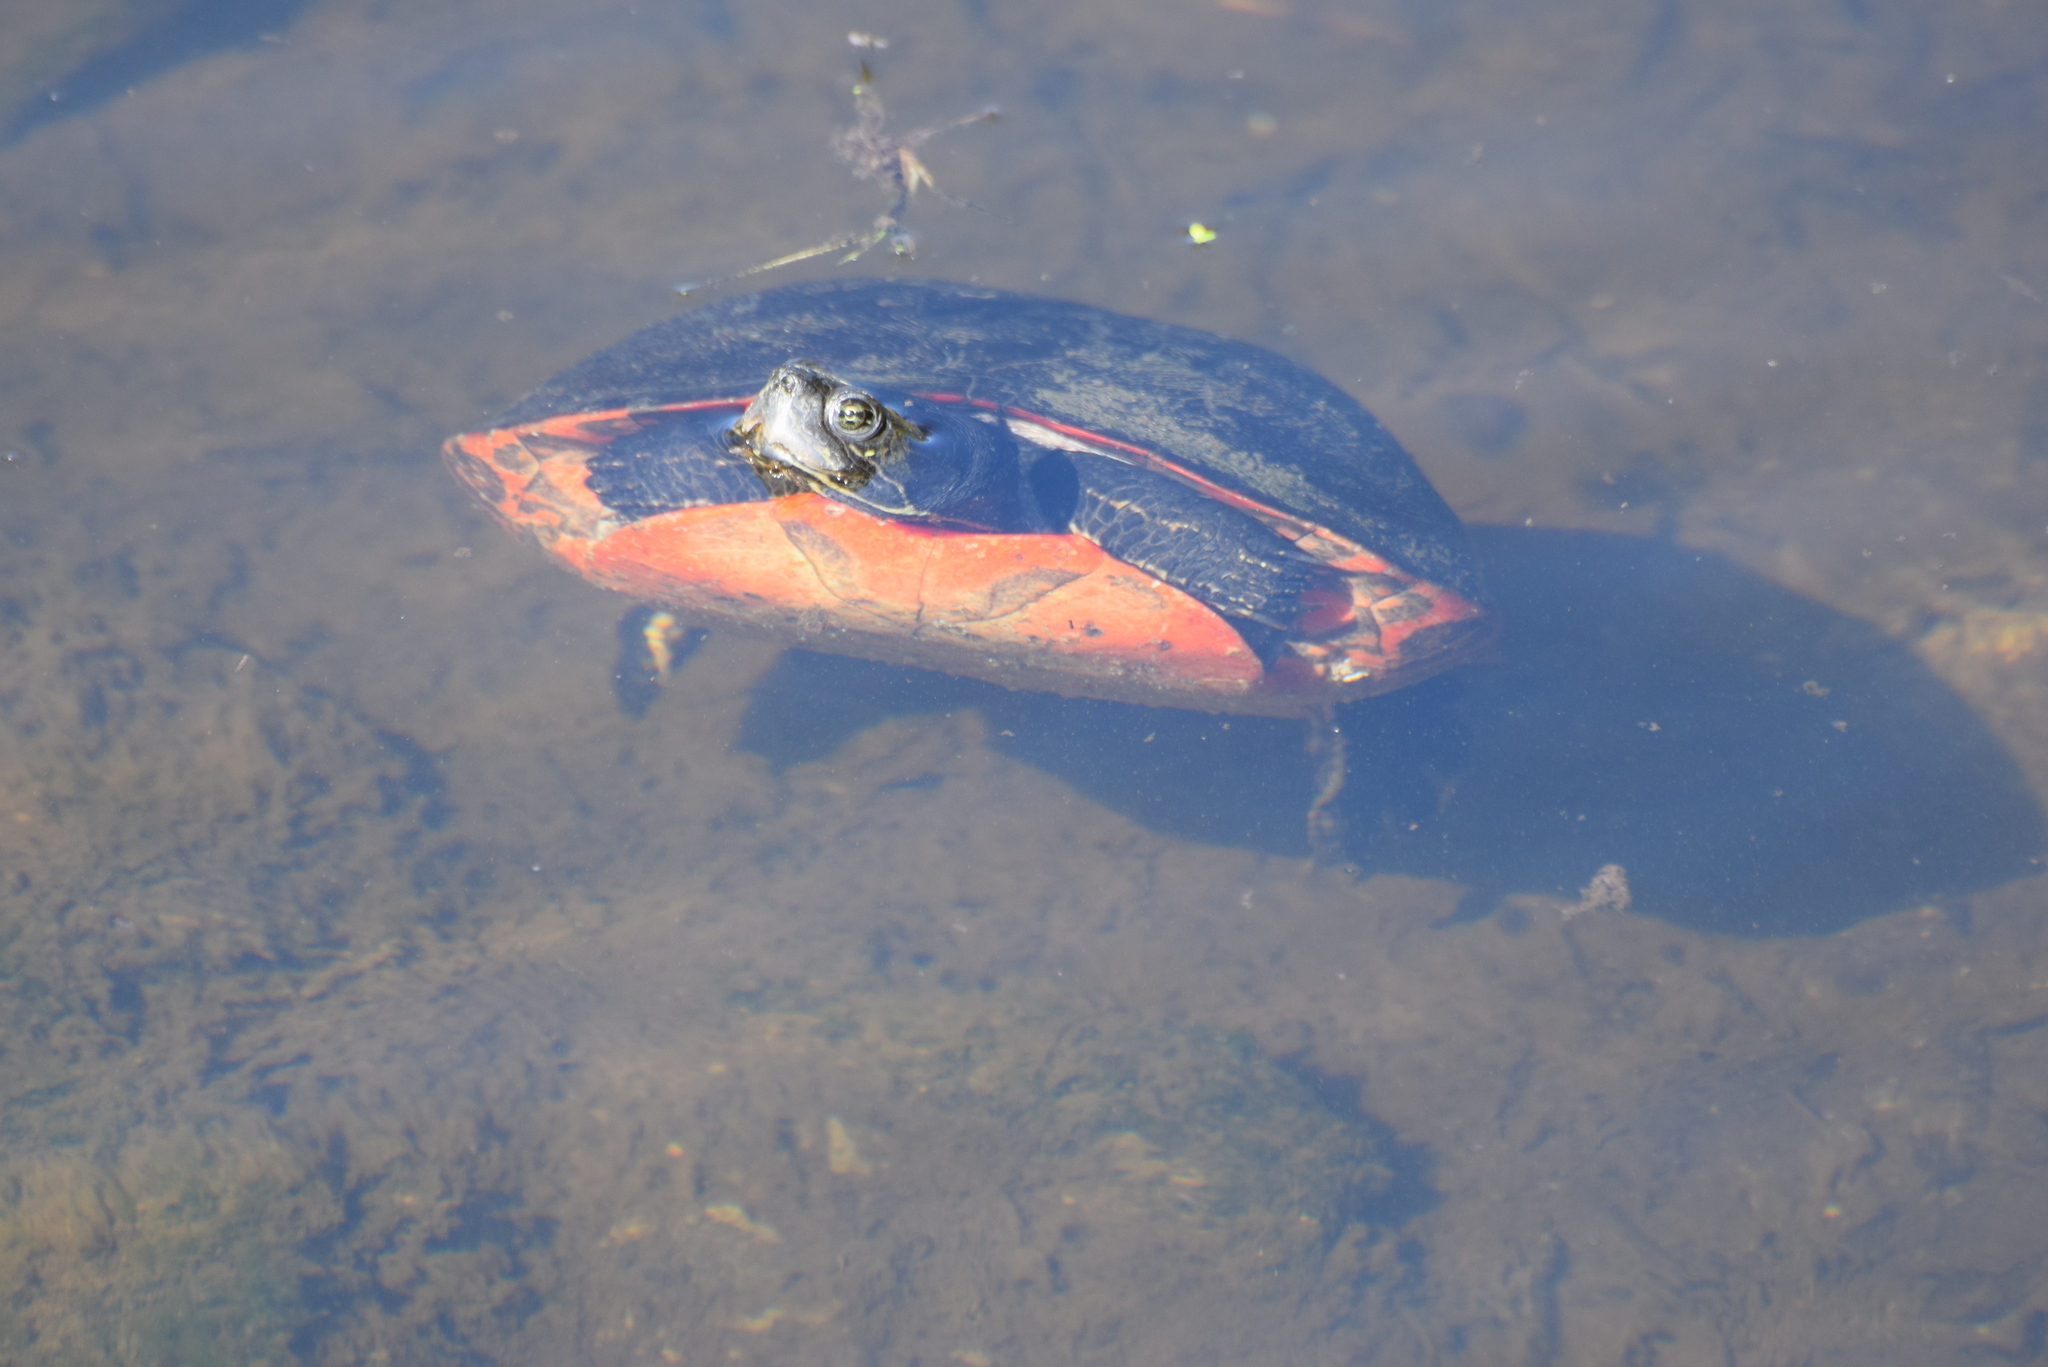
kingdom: Animalia
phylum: Chordata
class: Testudines
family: Emydidae
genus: Pseudemys
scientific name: Pseudemys rubriventris
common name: American red-bellied turtle
